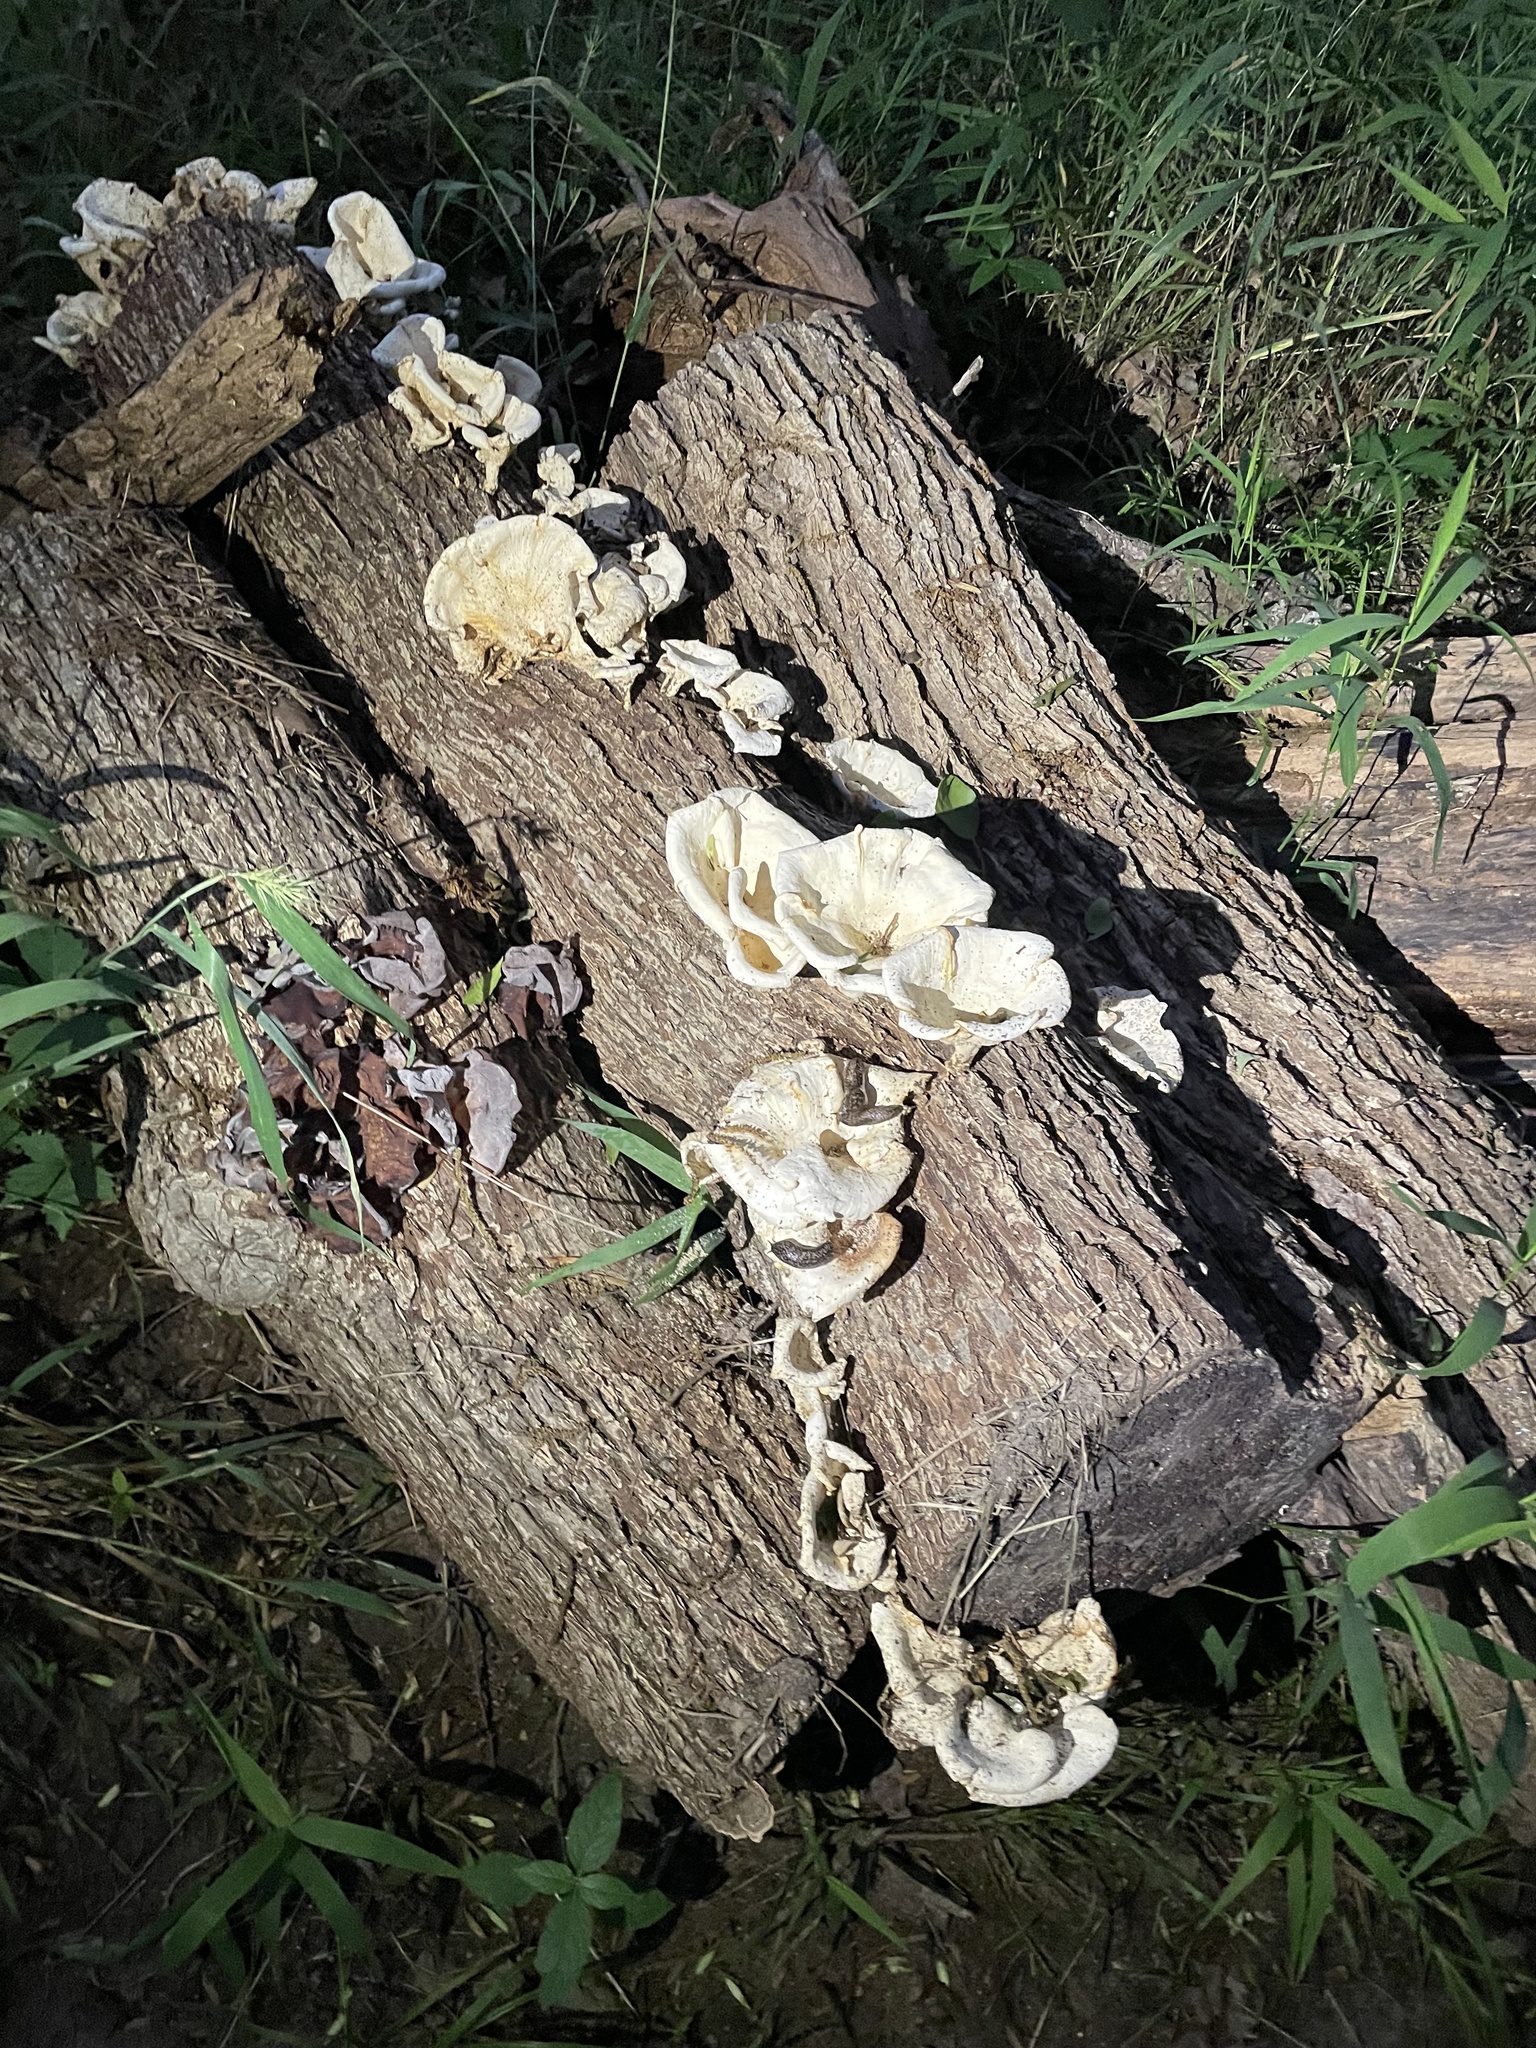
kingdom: Fungi
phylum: Basidiomycota
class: Agaricomycetes
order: Polyporales
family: Polyporaceae
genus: Favolus
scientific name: Favolus tenuiculus
